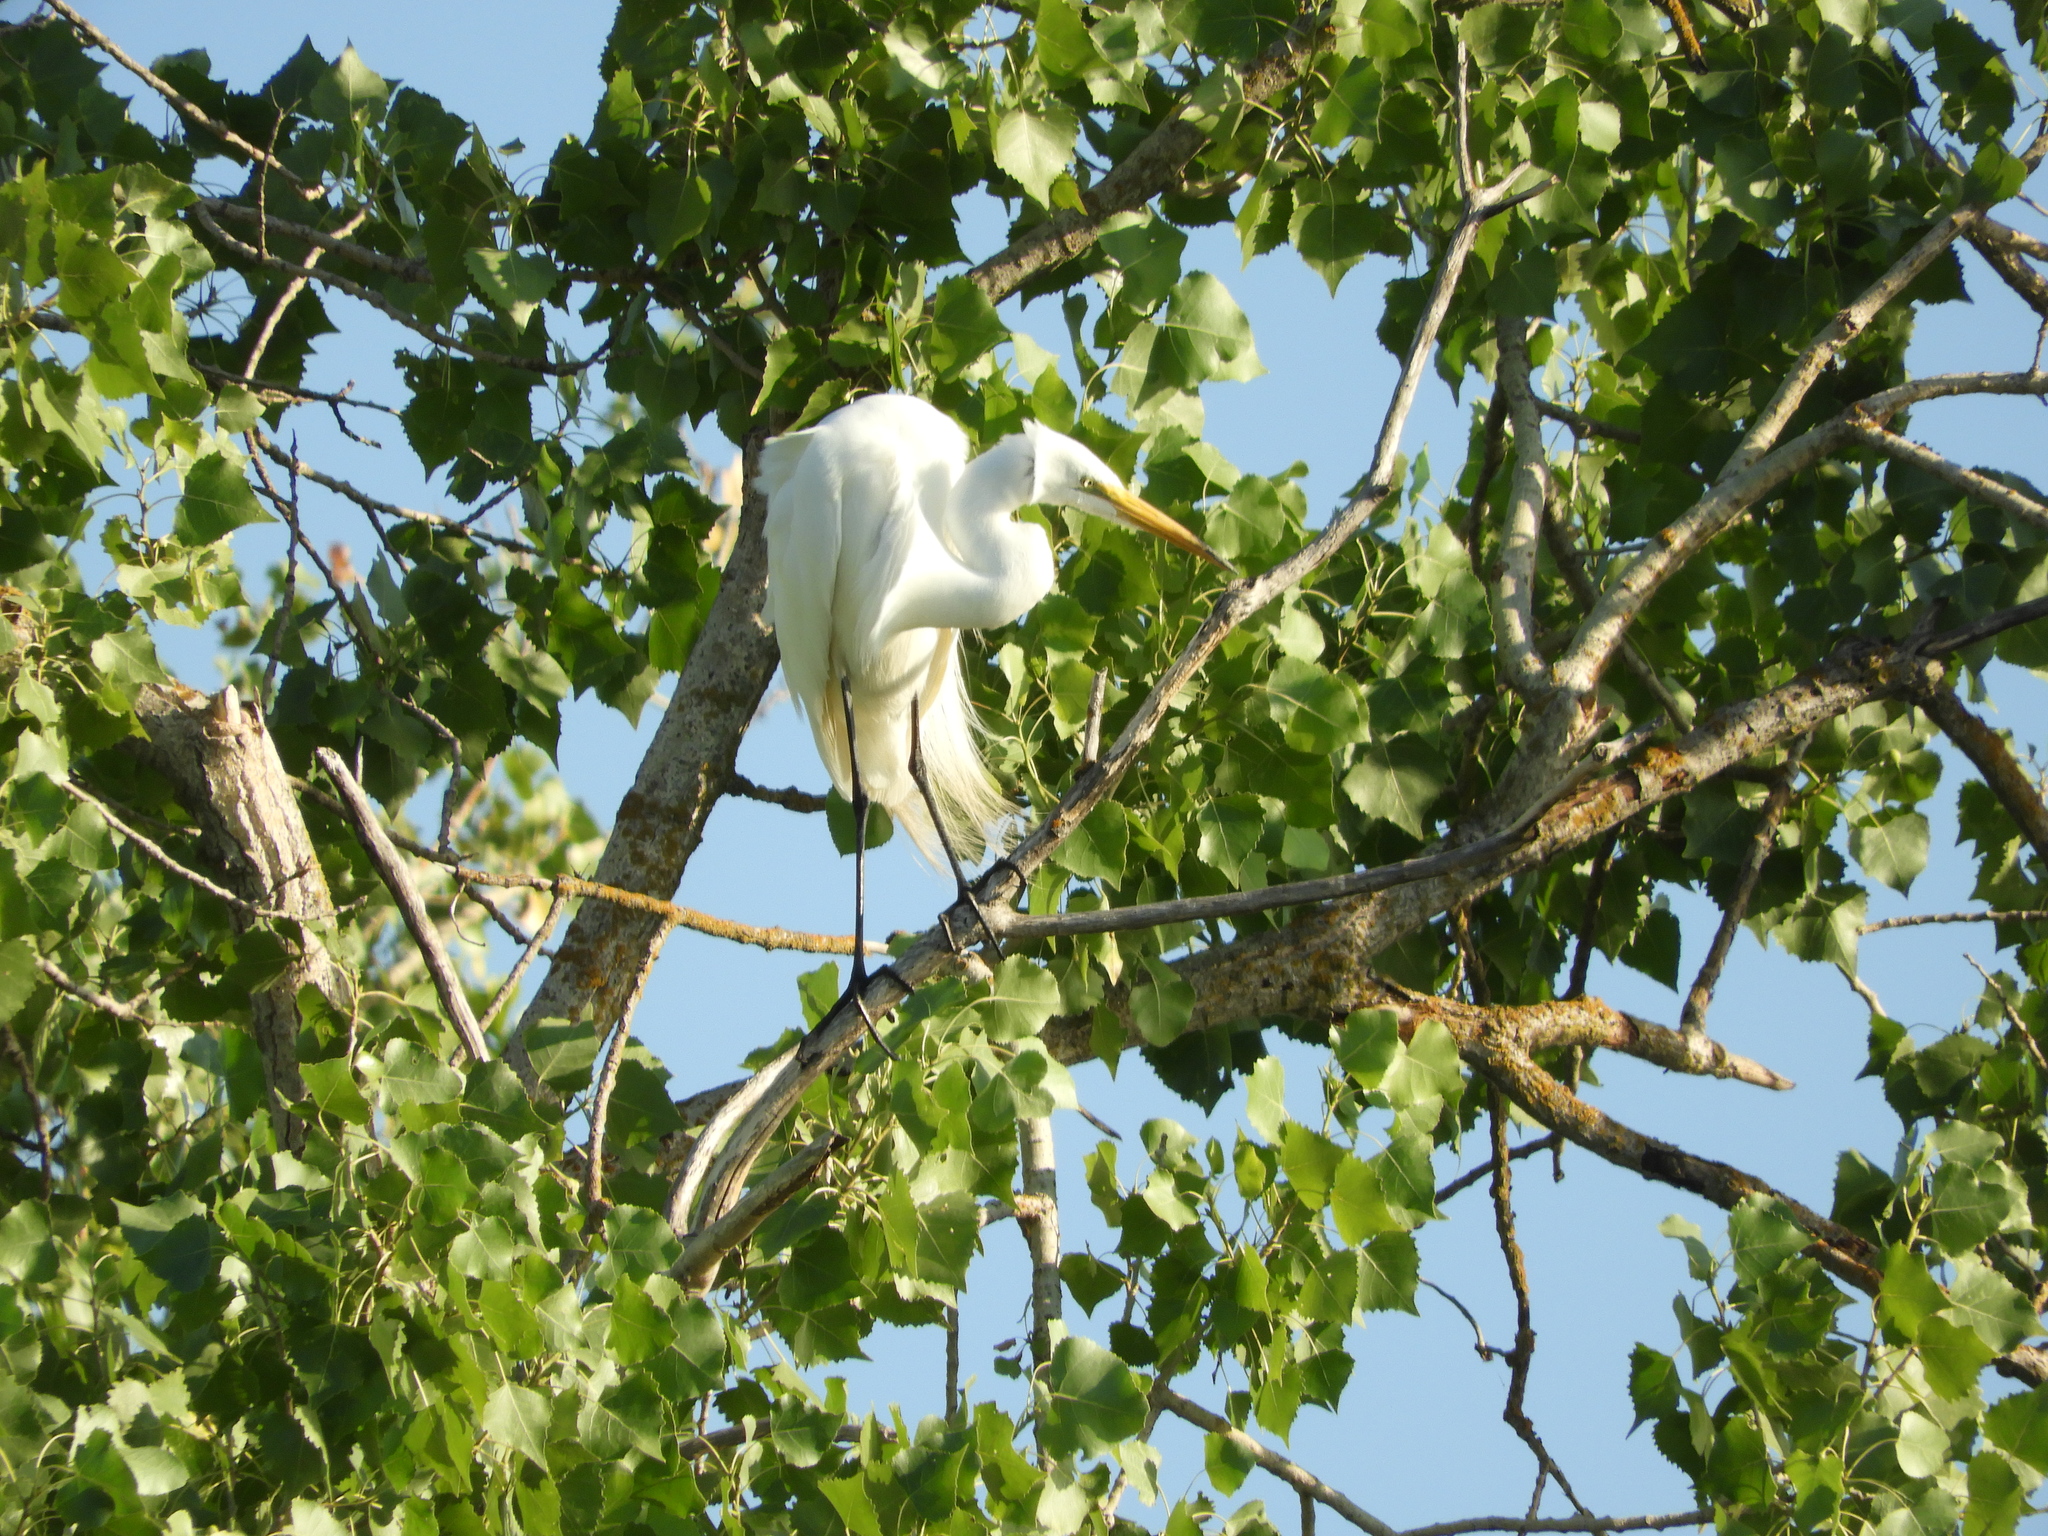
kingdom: Animalia
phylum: Chordata
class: Aves
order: Pelecaniformes
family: Ardeidae
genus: Ardea
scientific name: Ardea alba
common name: Great egret
